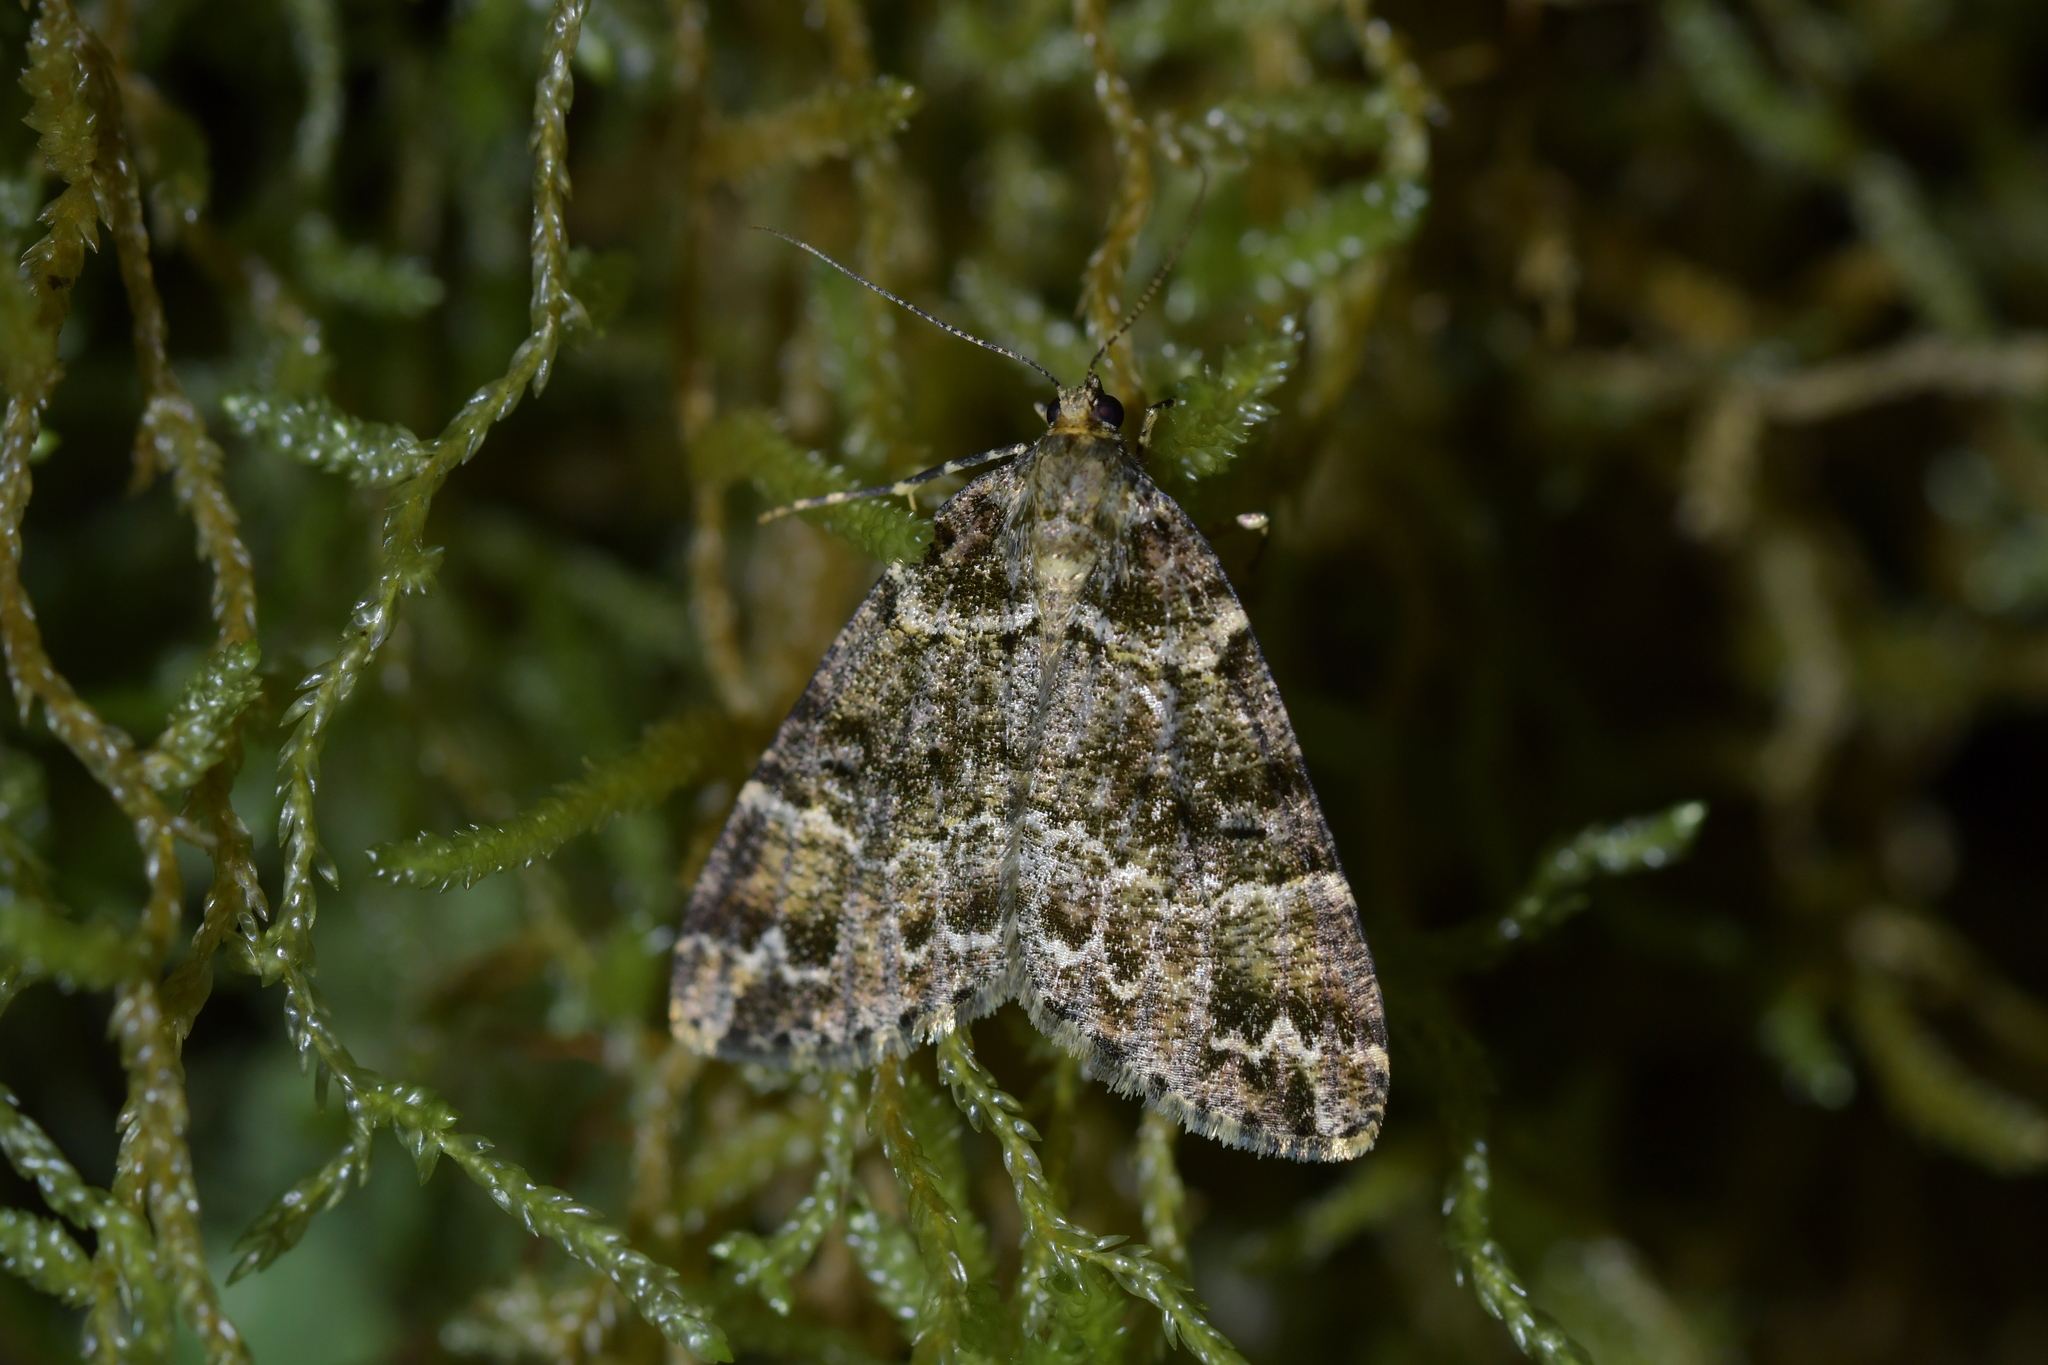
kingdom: Animalia
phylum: Arthropoda
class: Insecta
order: Lepidoptera
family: Geometridae
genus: Pseudocoremia
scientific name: Pseudocoremia productata
